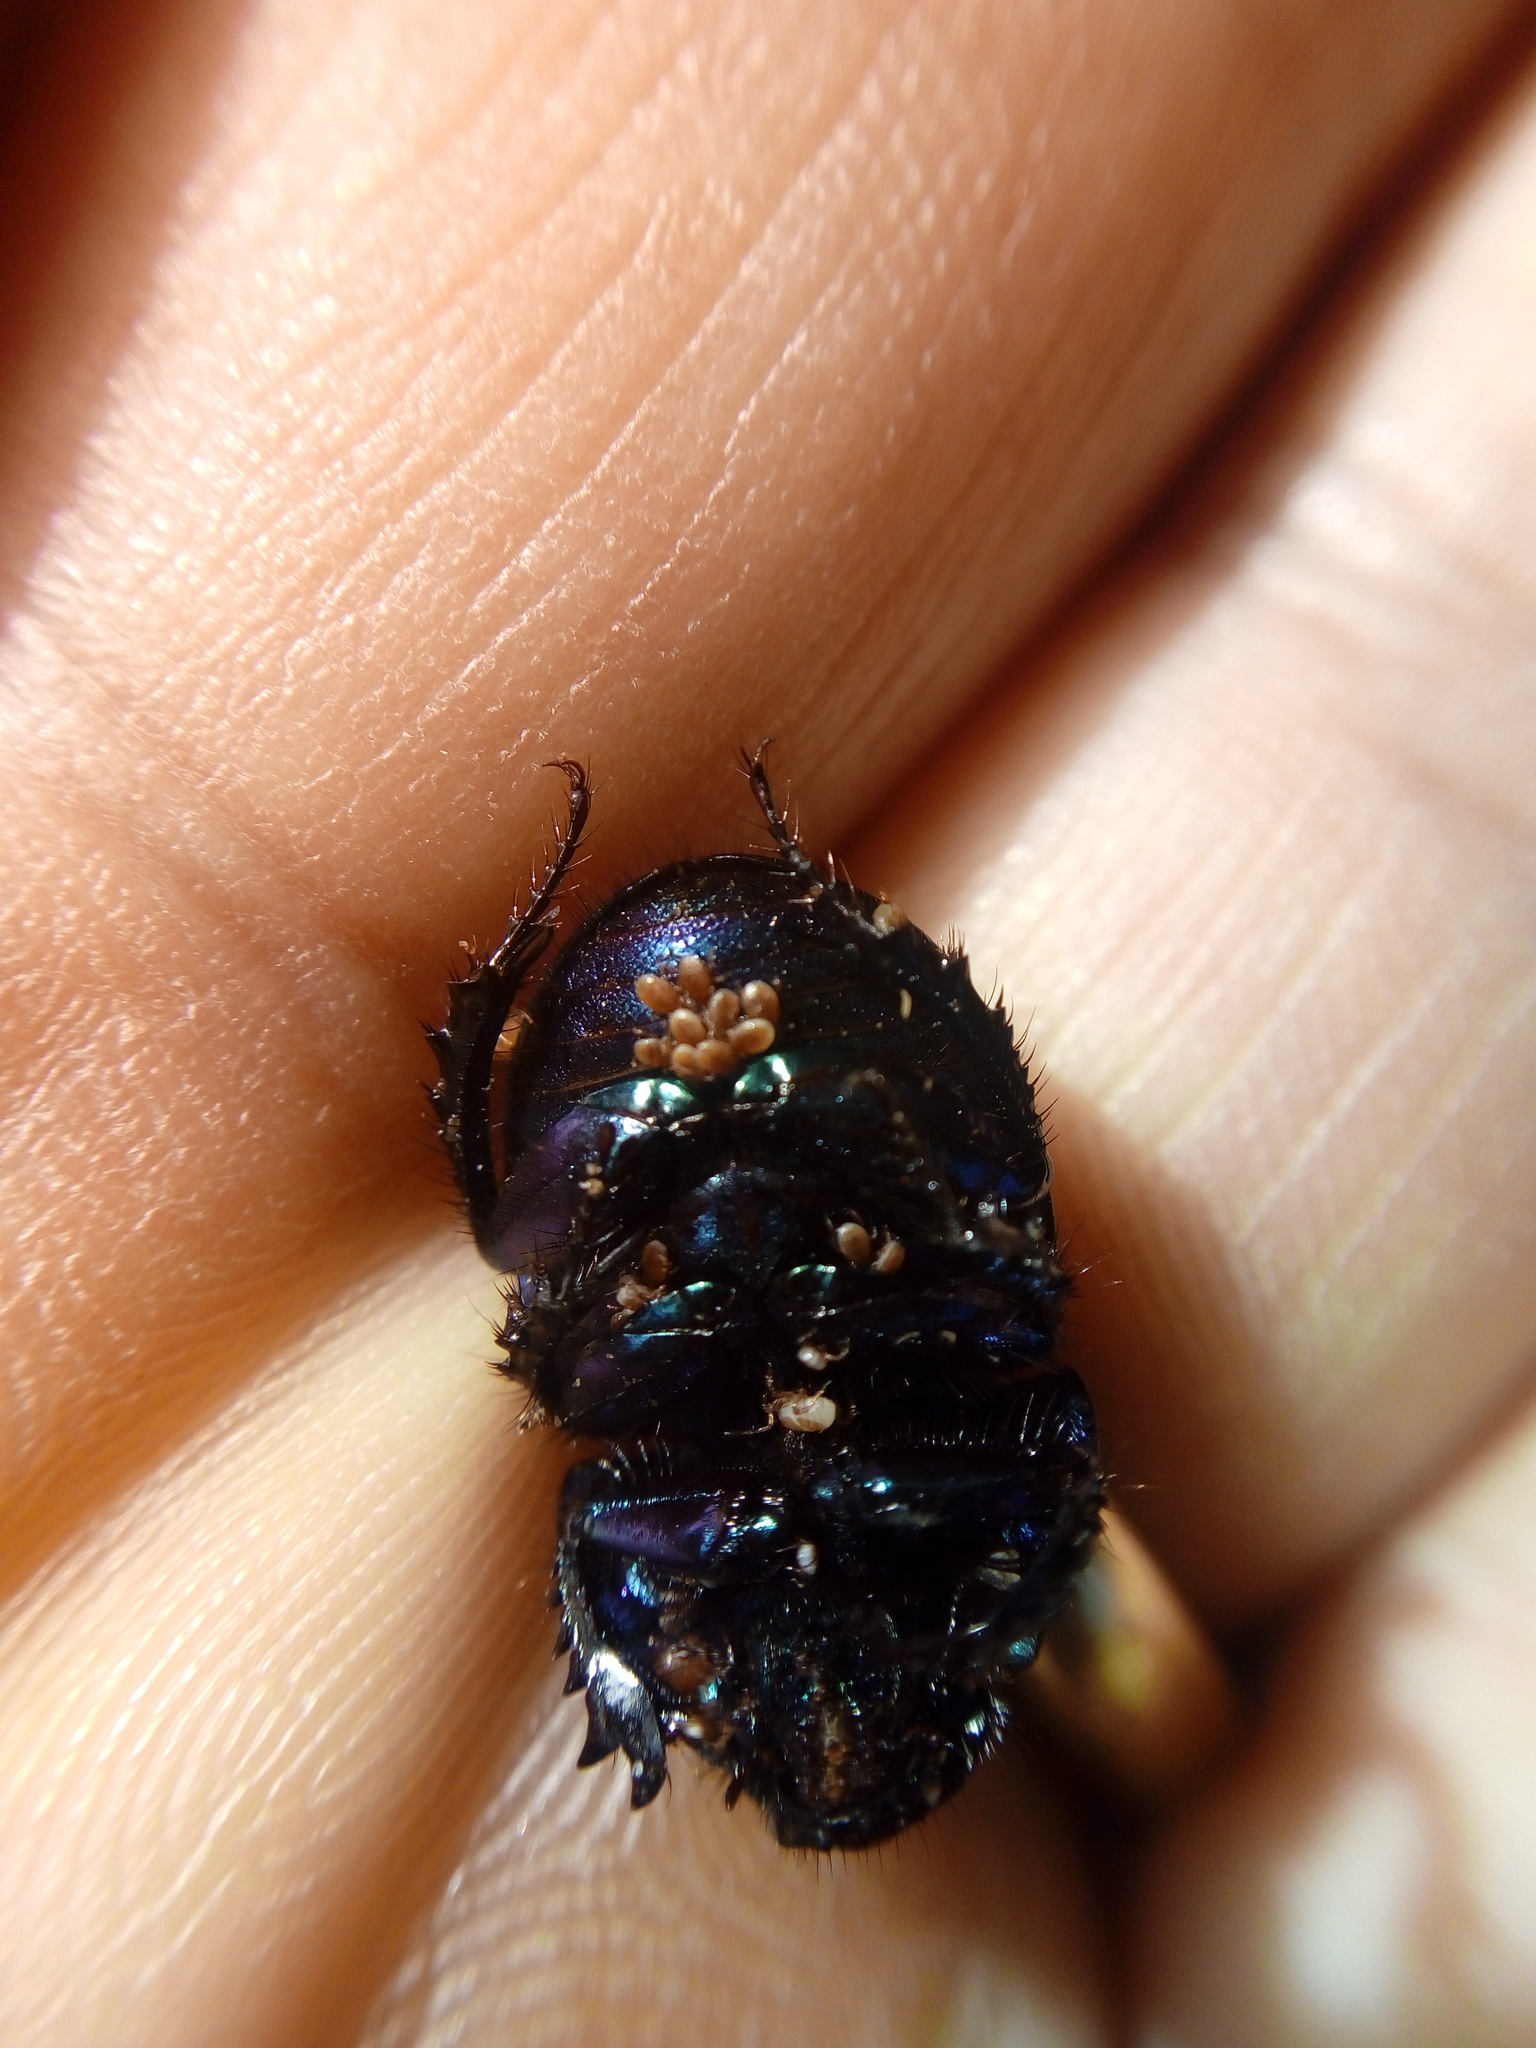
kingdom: Animalia
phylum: Arthropoda
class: Insecta
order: Coleoptera
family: Geotrupidae
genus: Anoplotrupes
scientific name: Anoplotrupes stercorosus
